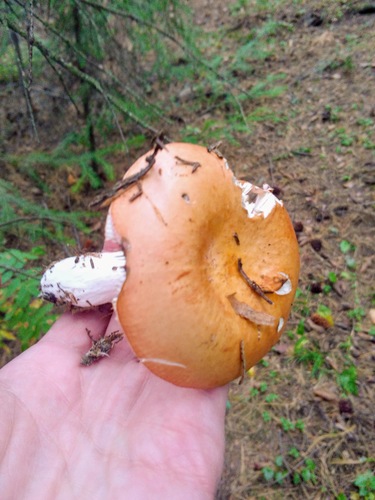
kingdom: Fungi
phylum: Basidiomycota
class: Agaricomycetes
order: Russulales
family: Russulaceae
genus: Russula
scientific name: Russula
